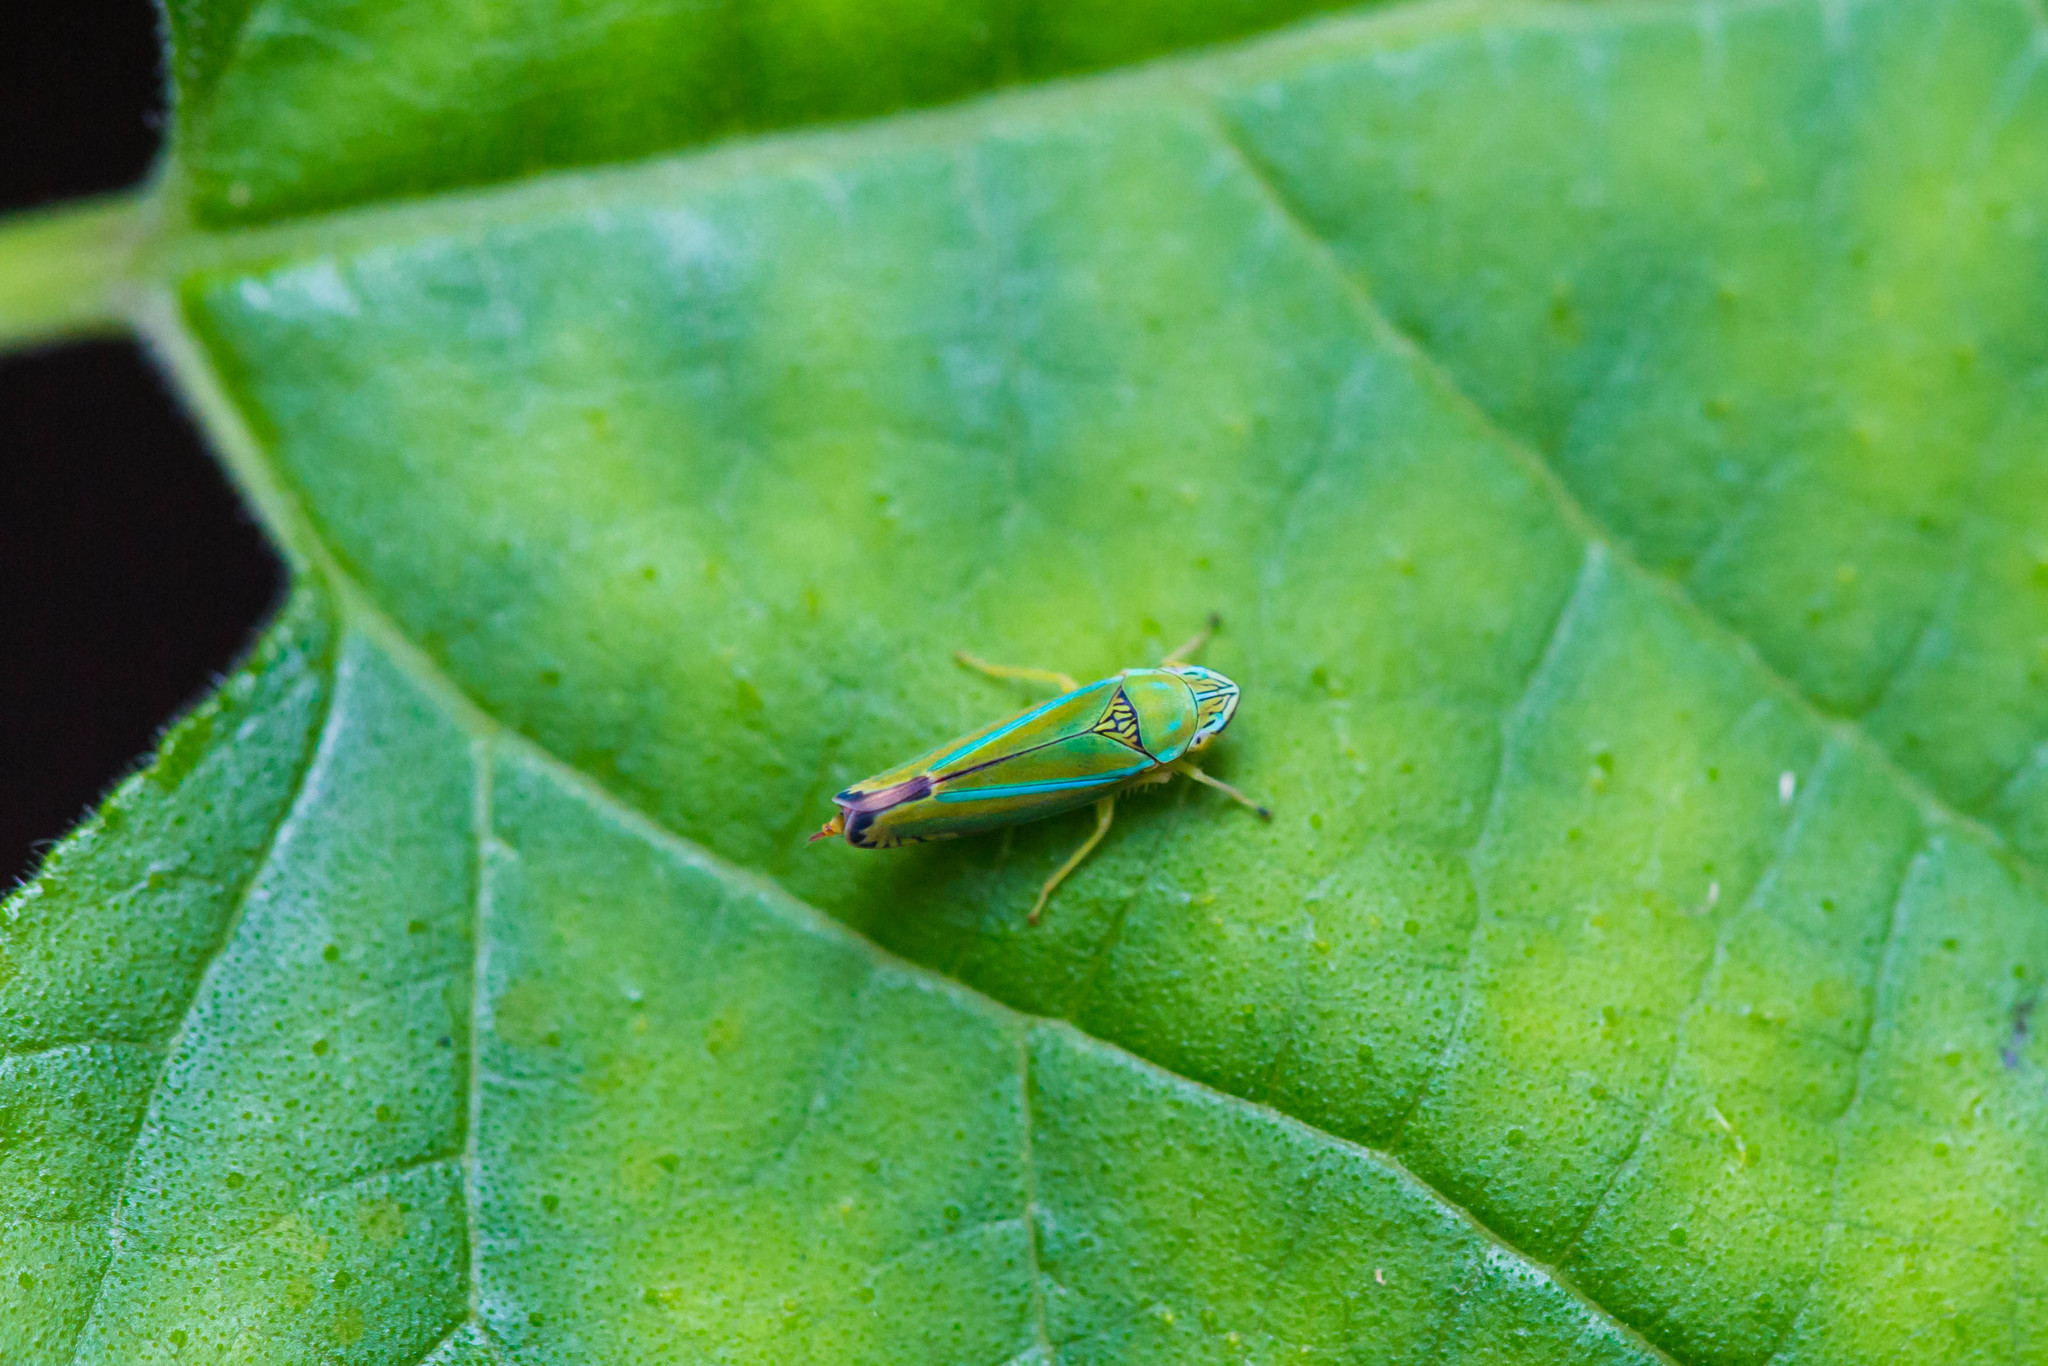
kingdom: Animalia
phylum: Arthropoda
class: Insecta
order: Hemiptera
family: Cicadellidae
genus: Graphocephala
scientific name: Graphocephala versuta
